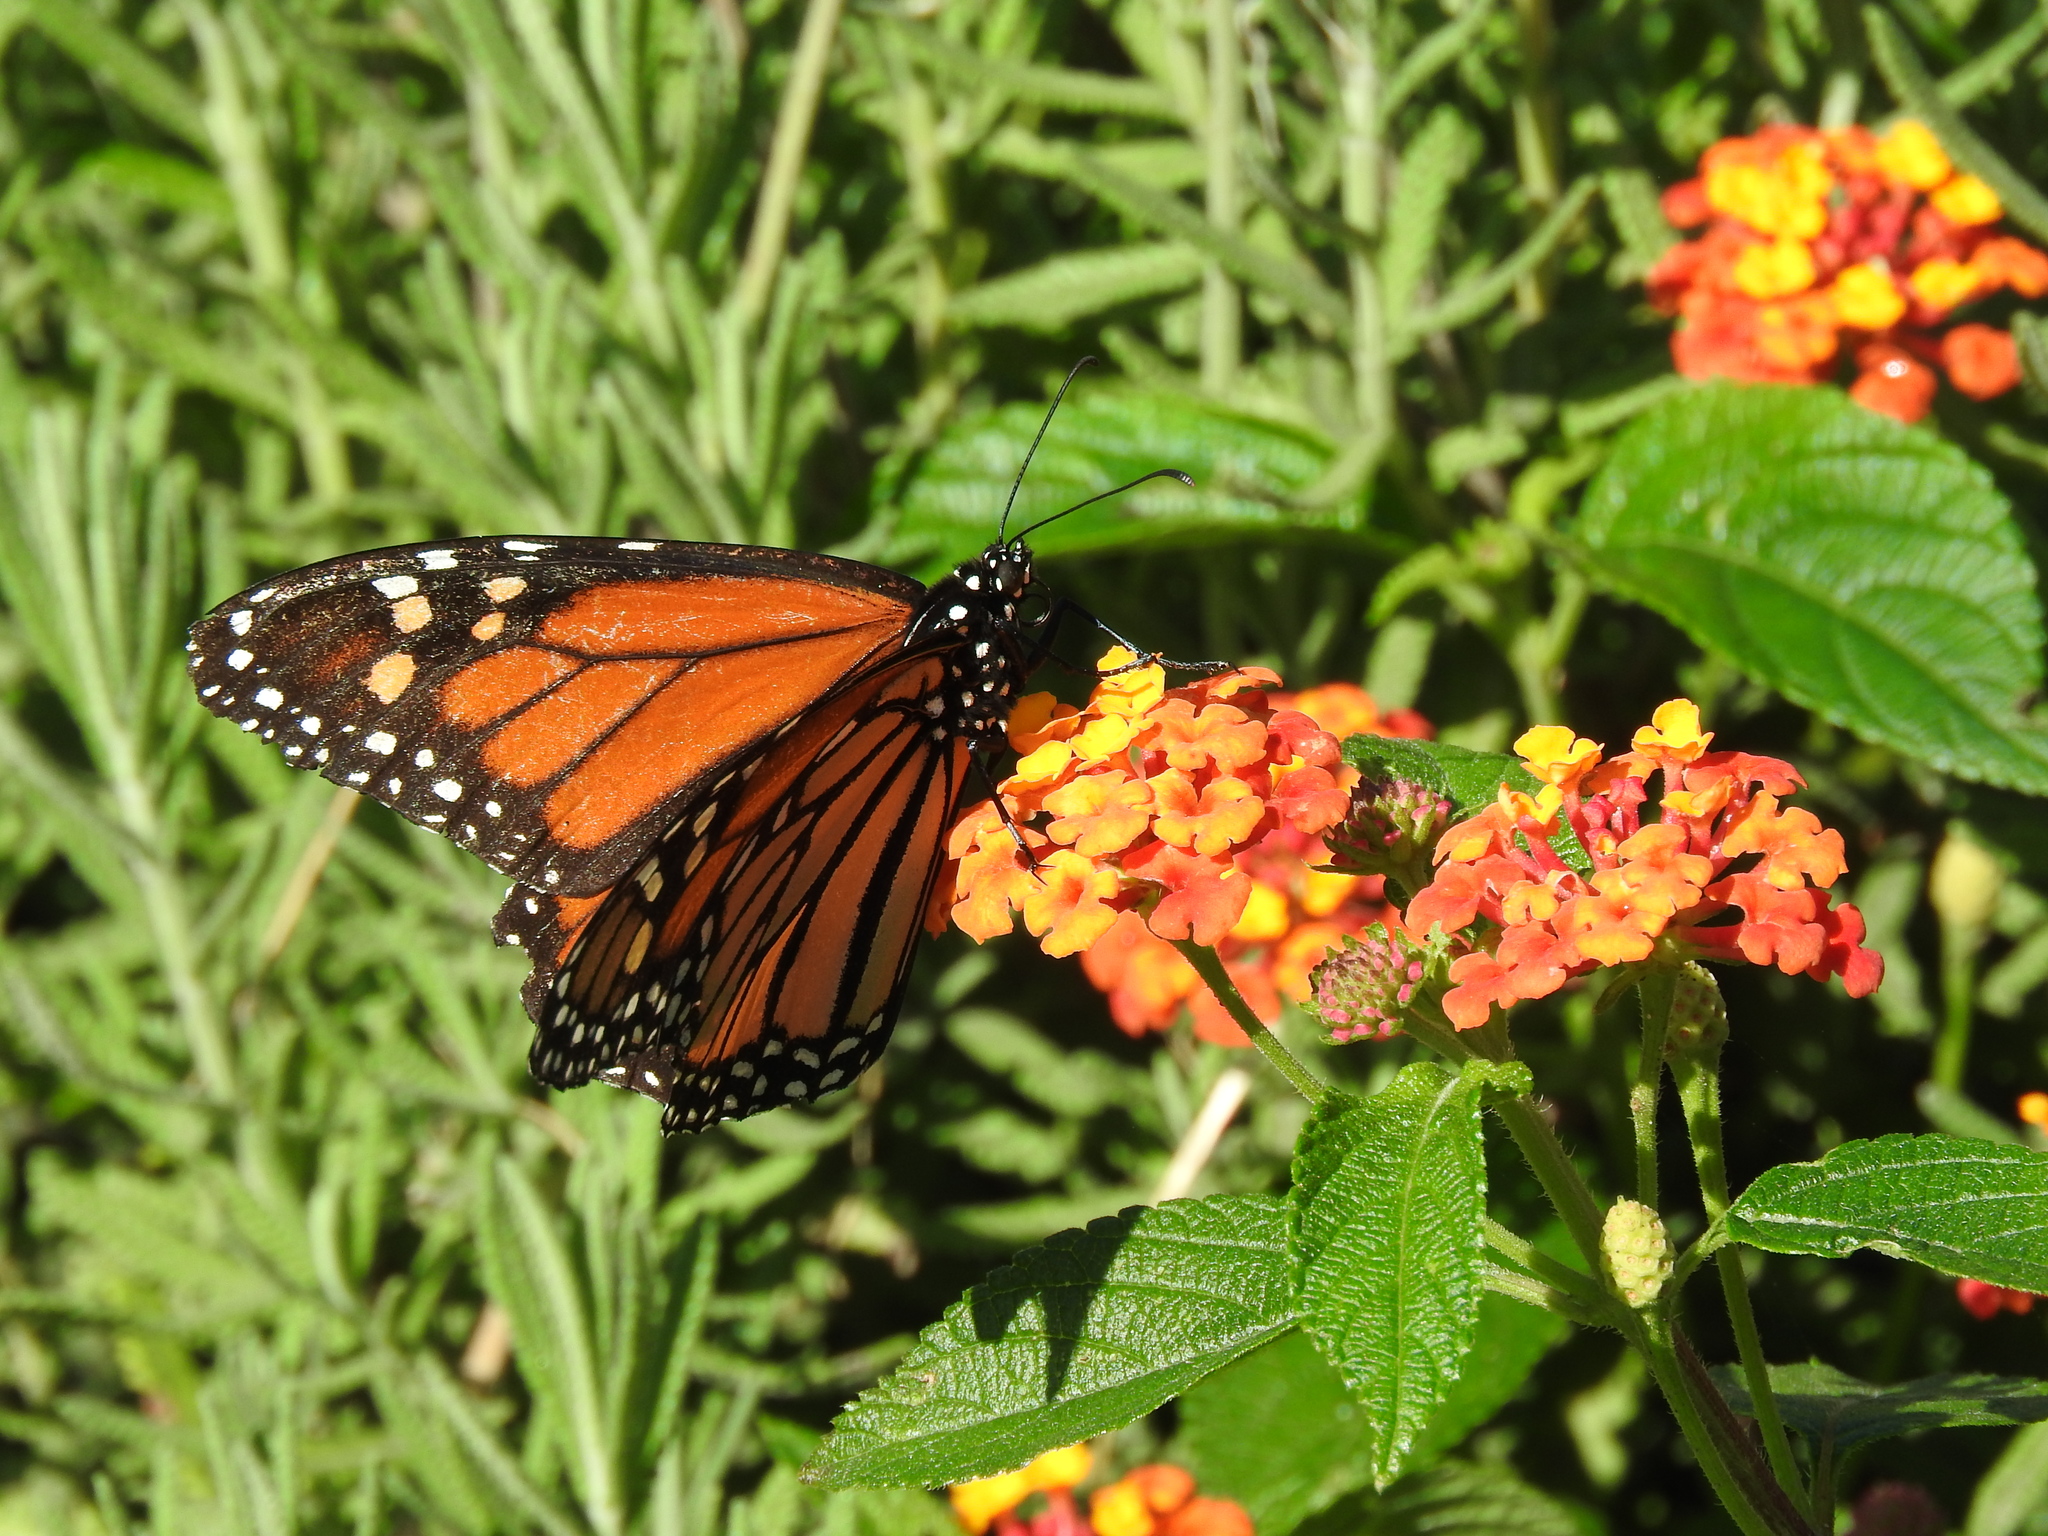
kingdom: Animalia
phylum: Arthropoda
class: Insecta
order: Lepidoptera
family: Nymphalidae
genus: Danaus
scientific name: Danaus plexippus
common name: Monarch
